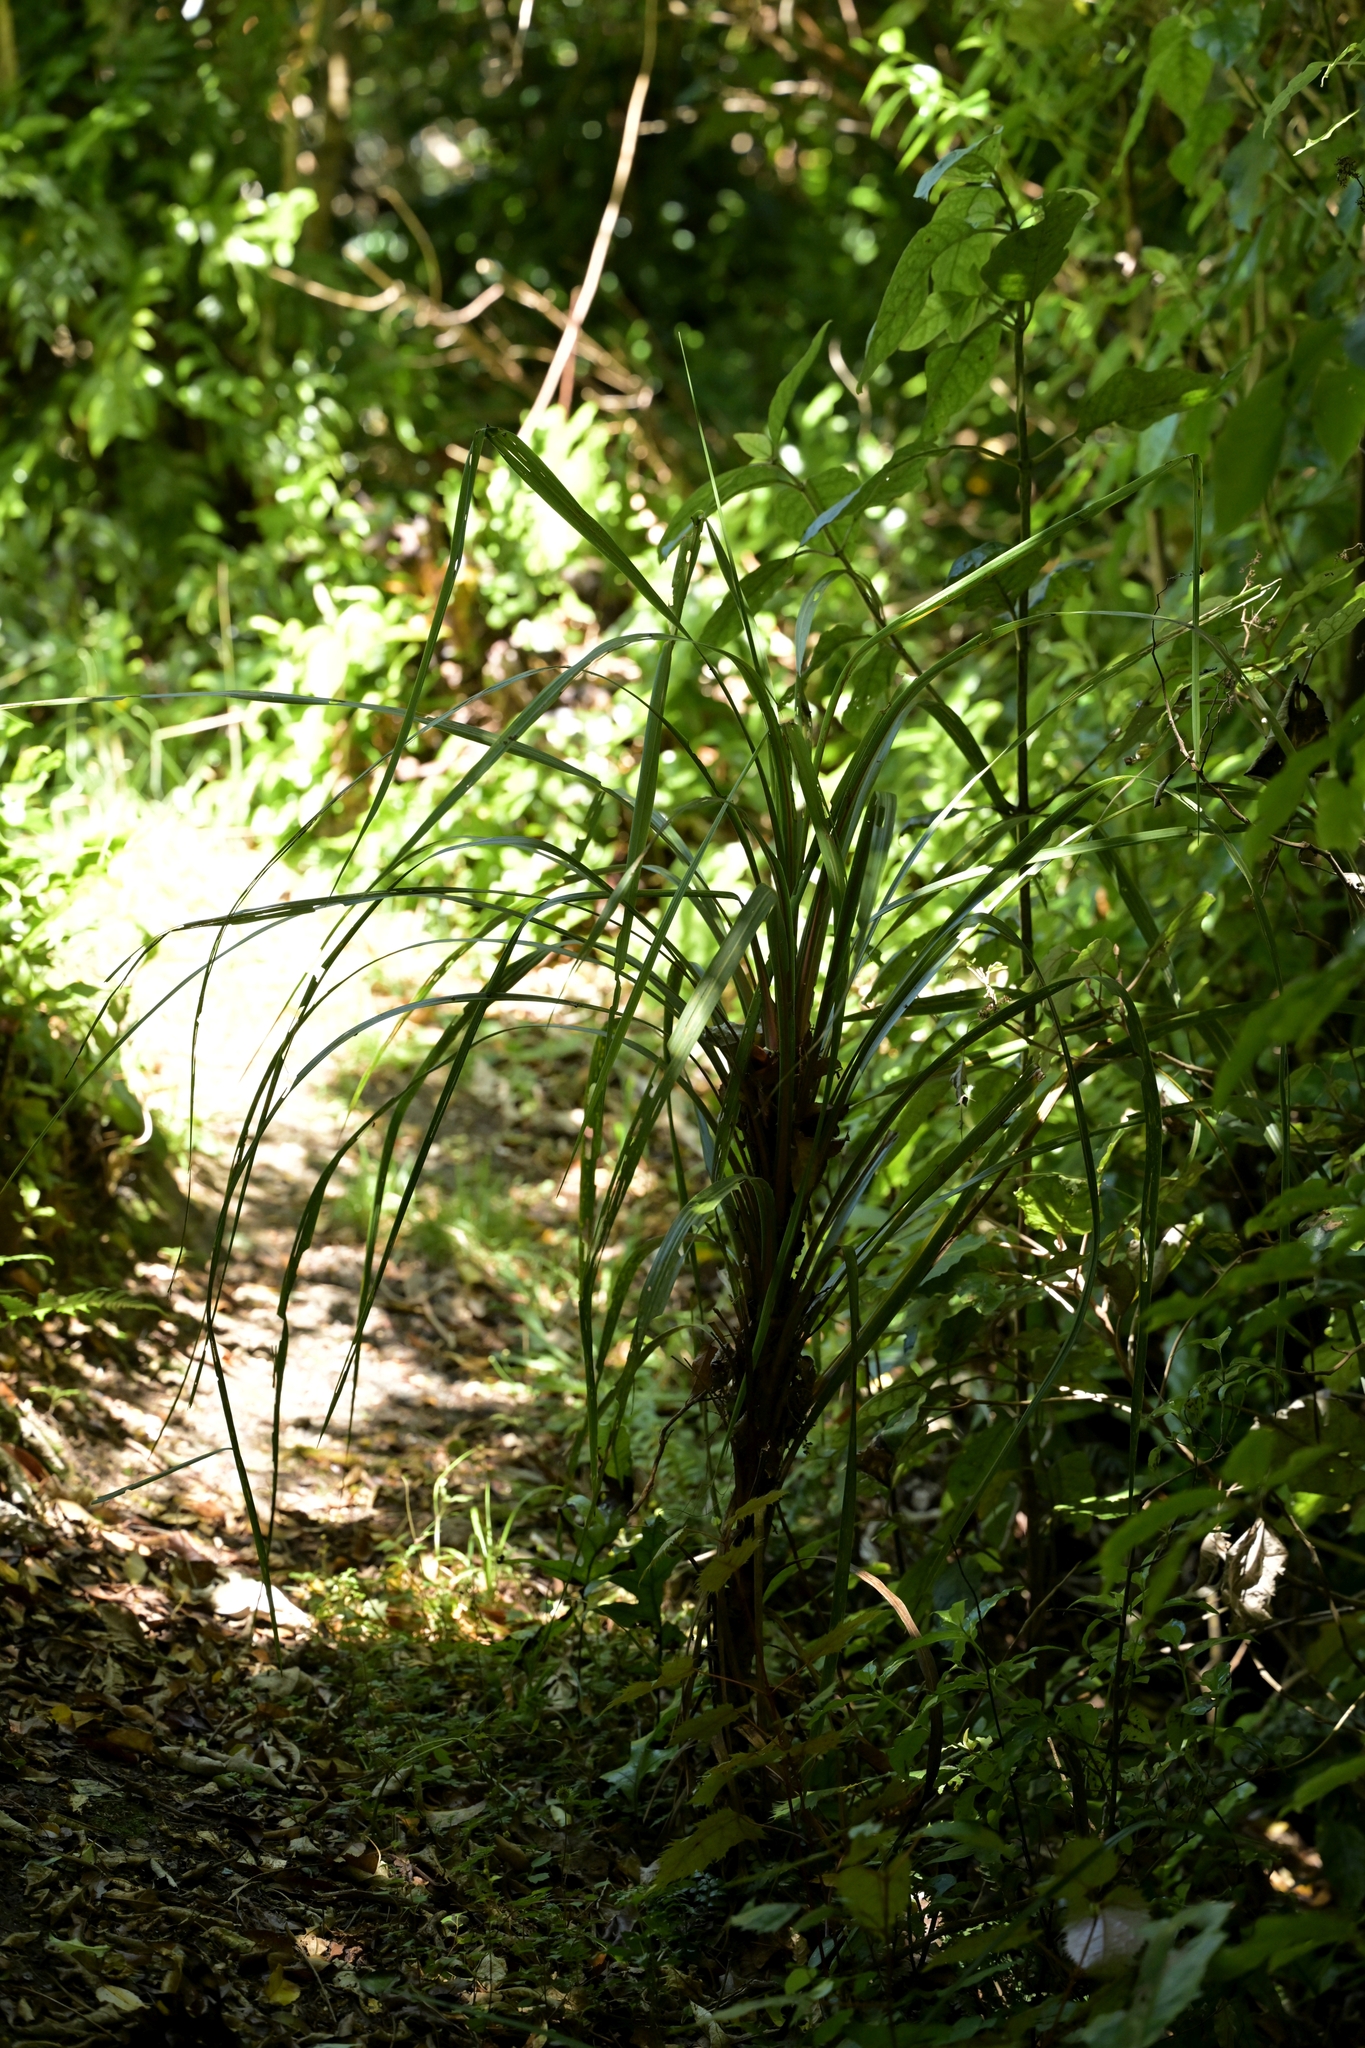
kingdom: Plantae
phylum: Tracheophyta
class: Liliopsida
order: Asparagales
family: Asparagaceae
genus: Cordyline
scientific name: Cordyline australis
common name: Cabbage-palm
